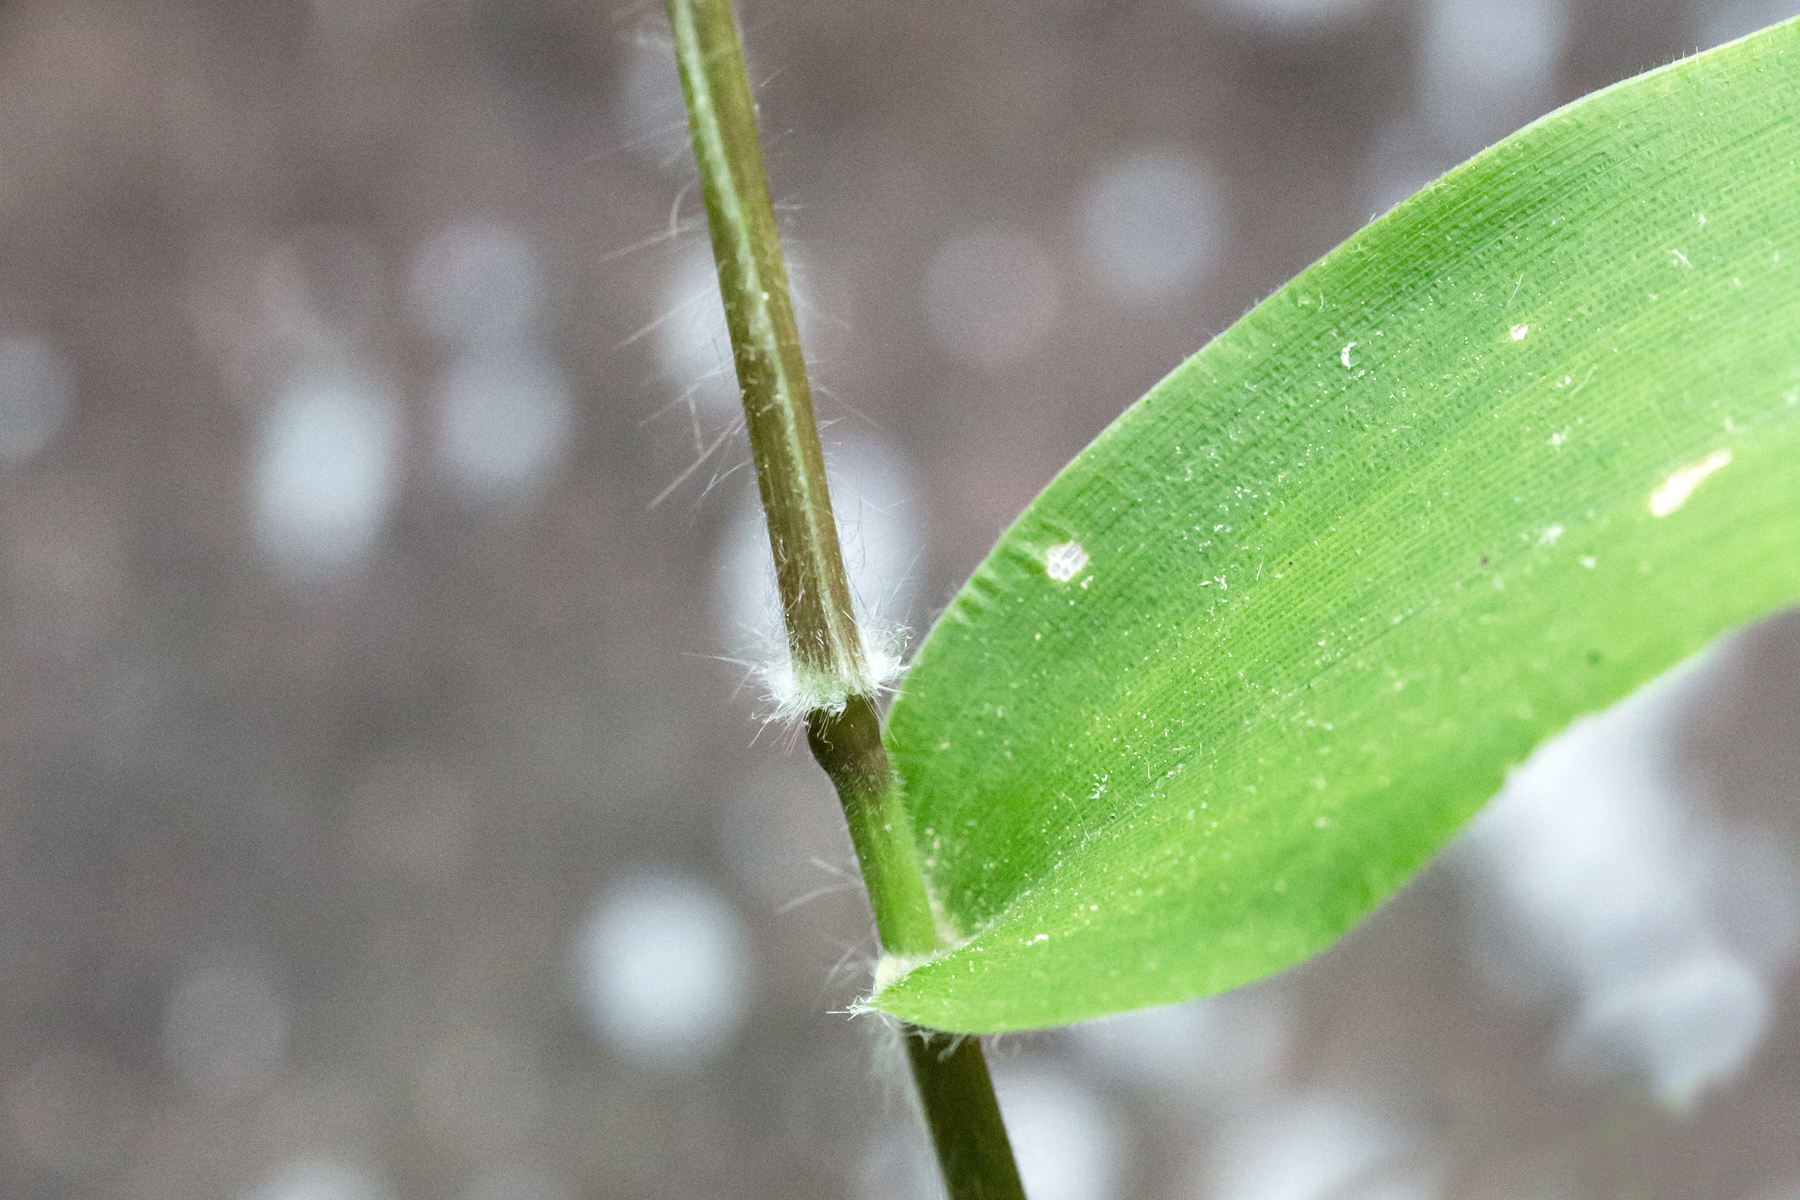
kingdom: Plantae
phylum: Tracheophyta
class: Liliopsida
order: Poales
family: Poaceae
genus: Dichanthelium
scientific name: Dichanthelium boscii
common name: Bosc's panic grass
